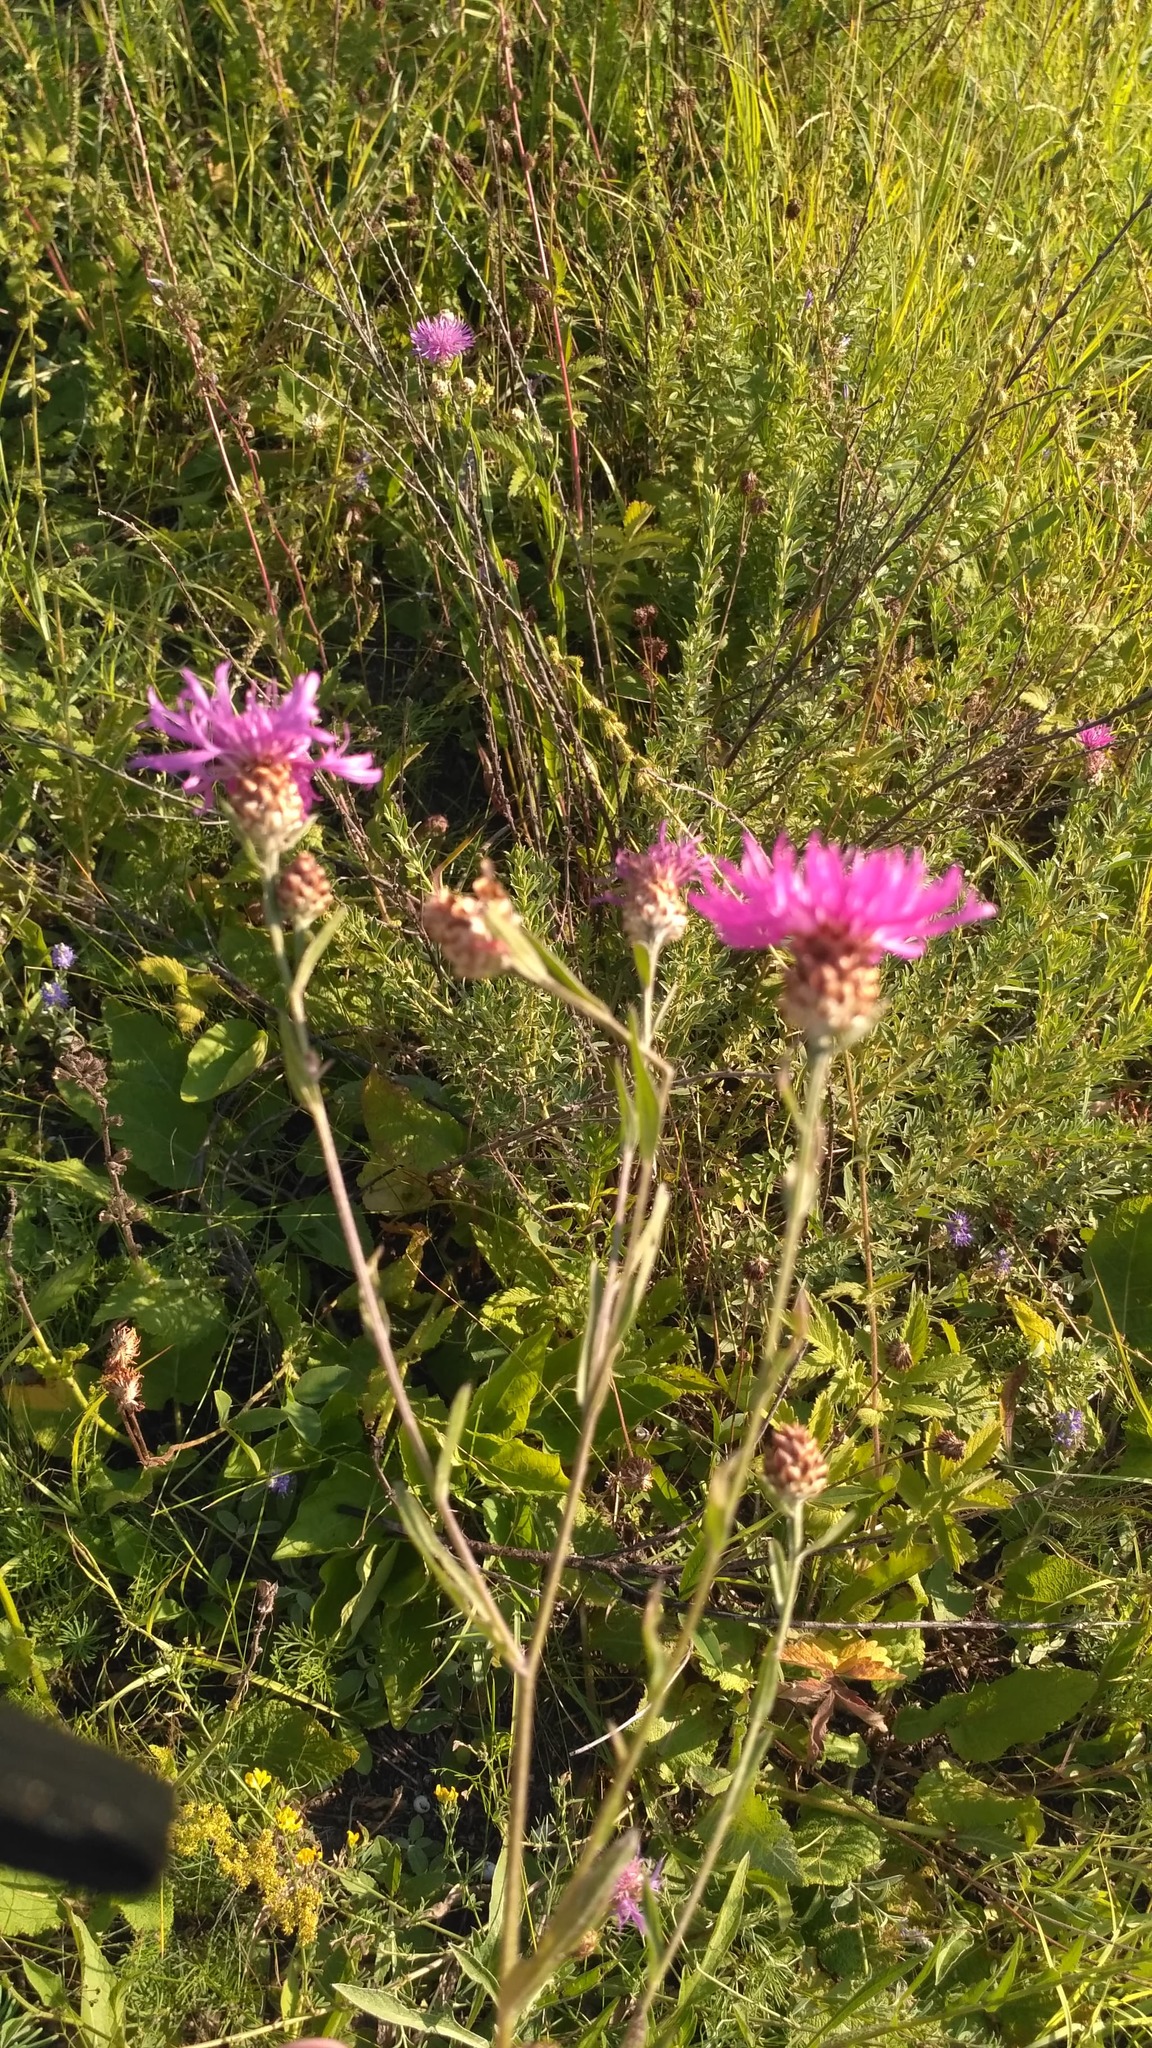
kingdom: Plantae
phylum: Tracheophyta
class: Magnoliopsida
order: Asterales
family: Asteraceae
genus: Centaurea
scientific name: Centaurea jacea
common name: Brown knapweed
